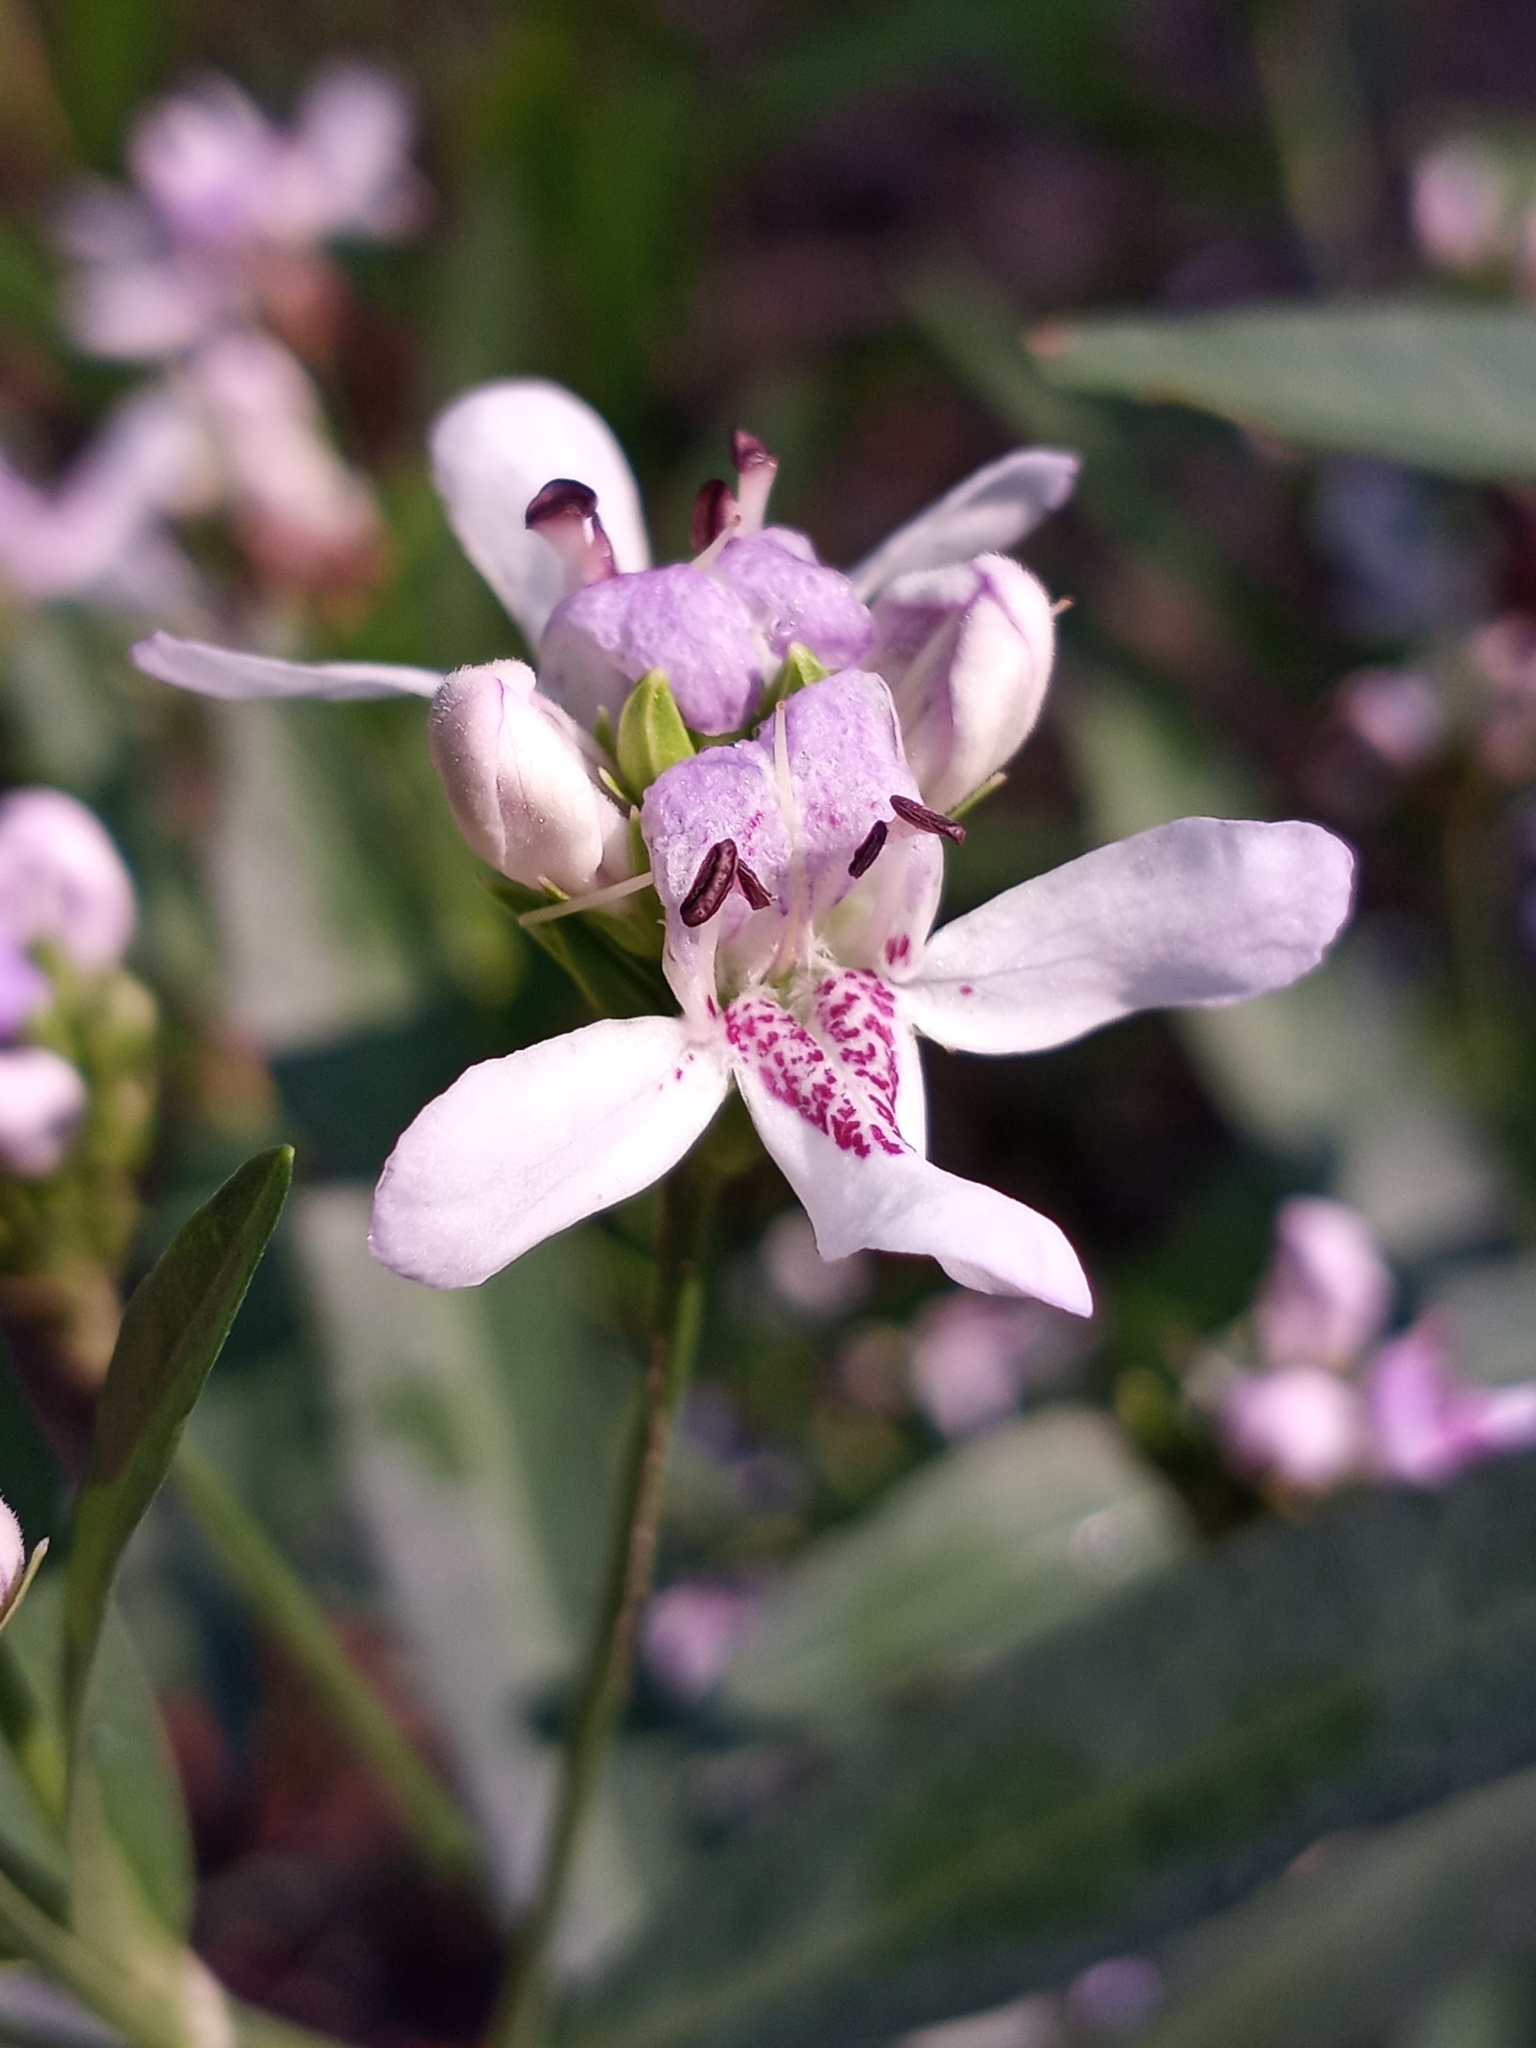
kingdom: Plantae
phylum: Tracheophyta
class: Magnoliopsida
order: Lamiales
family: Acanthaceae
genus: Dianthera
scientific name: Dianthera americana
